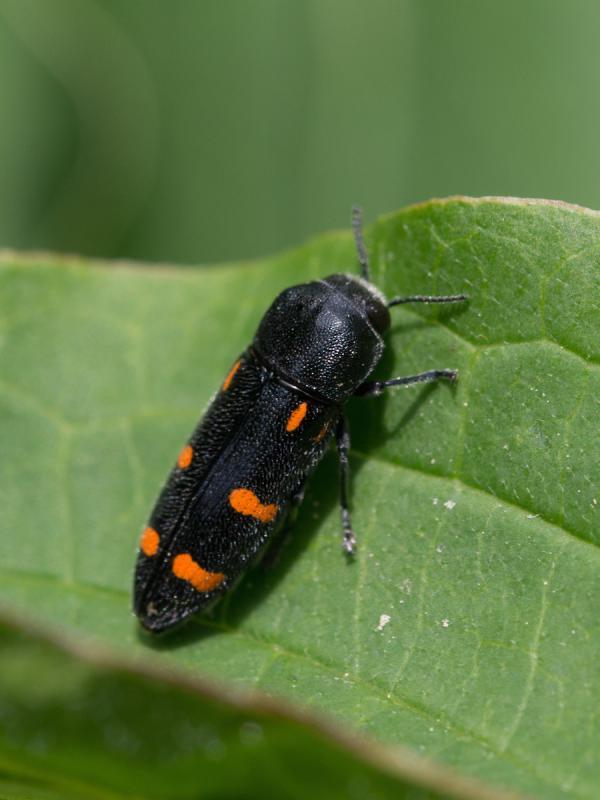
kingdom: Animalia
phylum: Arthropoda
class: Insecta
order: Coleoptera
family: Buprestidae
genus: Ptosima
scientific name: Ptosima undecimmaculata
